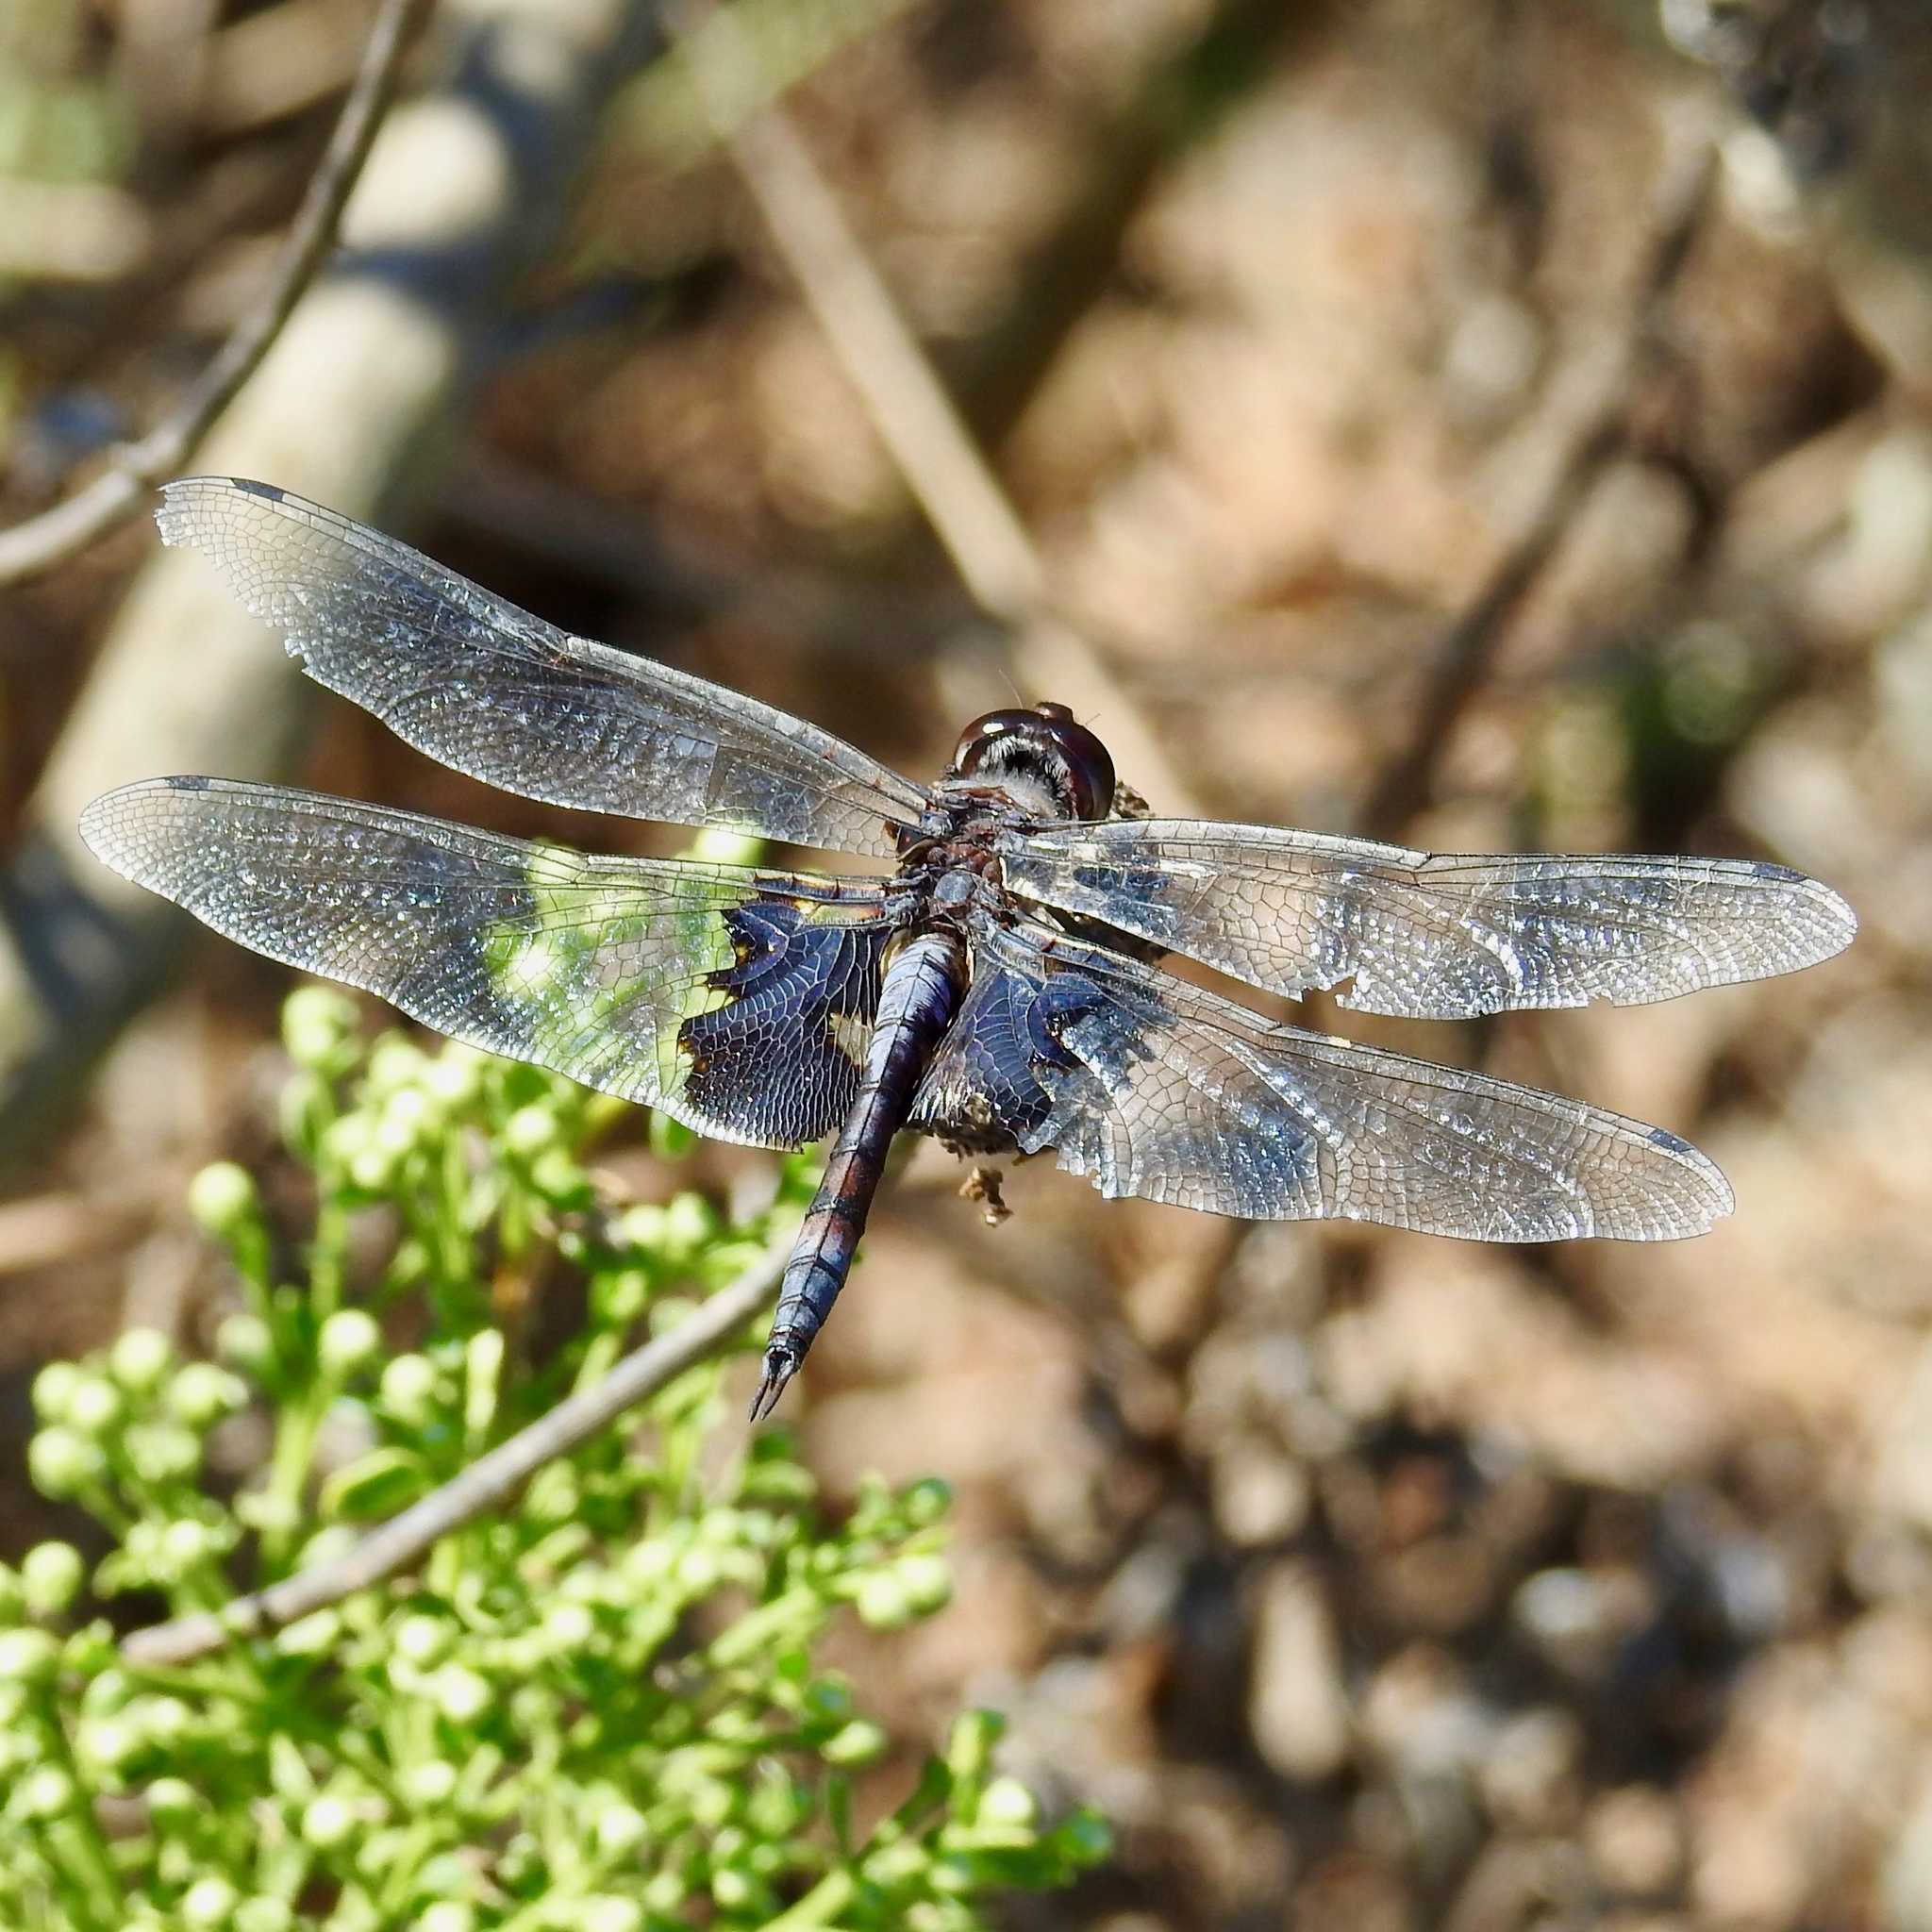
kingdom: Animalia
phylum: Arthropoda
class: Insecta
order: Odonata
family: Libellulidae
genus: Tramea
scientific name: Tramea lacerata
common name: Black saddlebags
